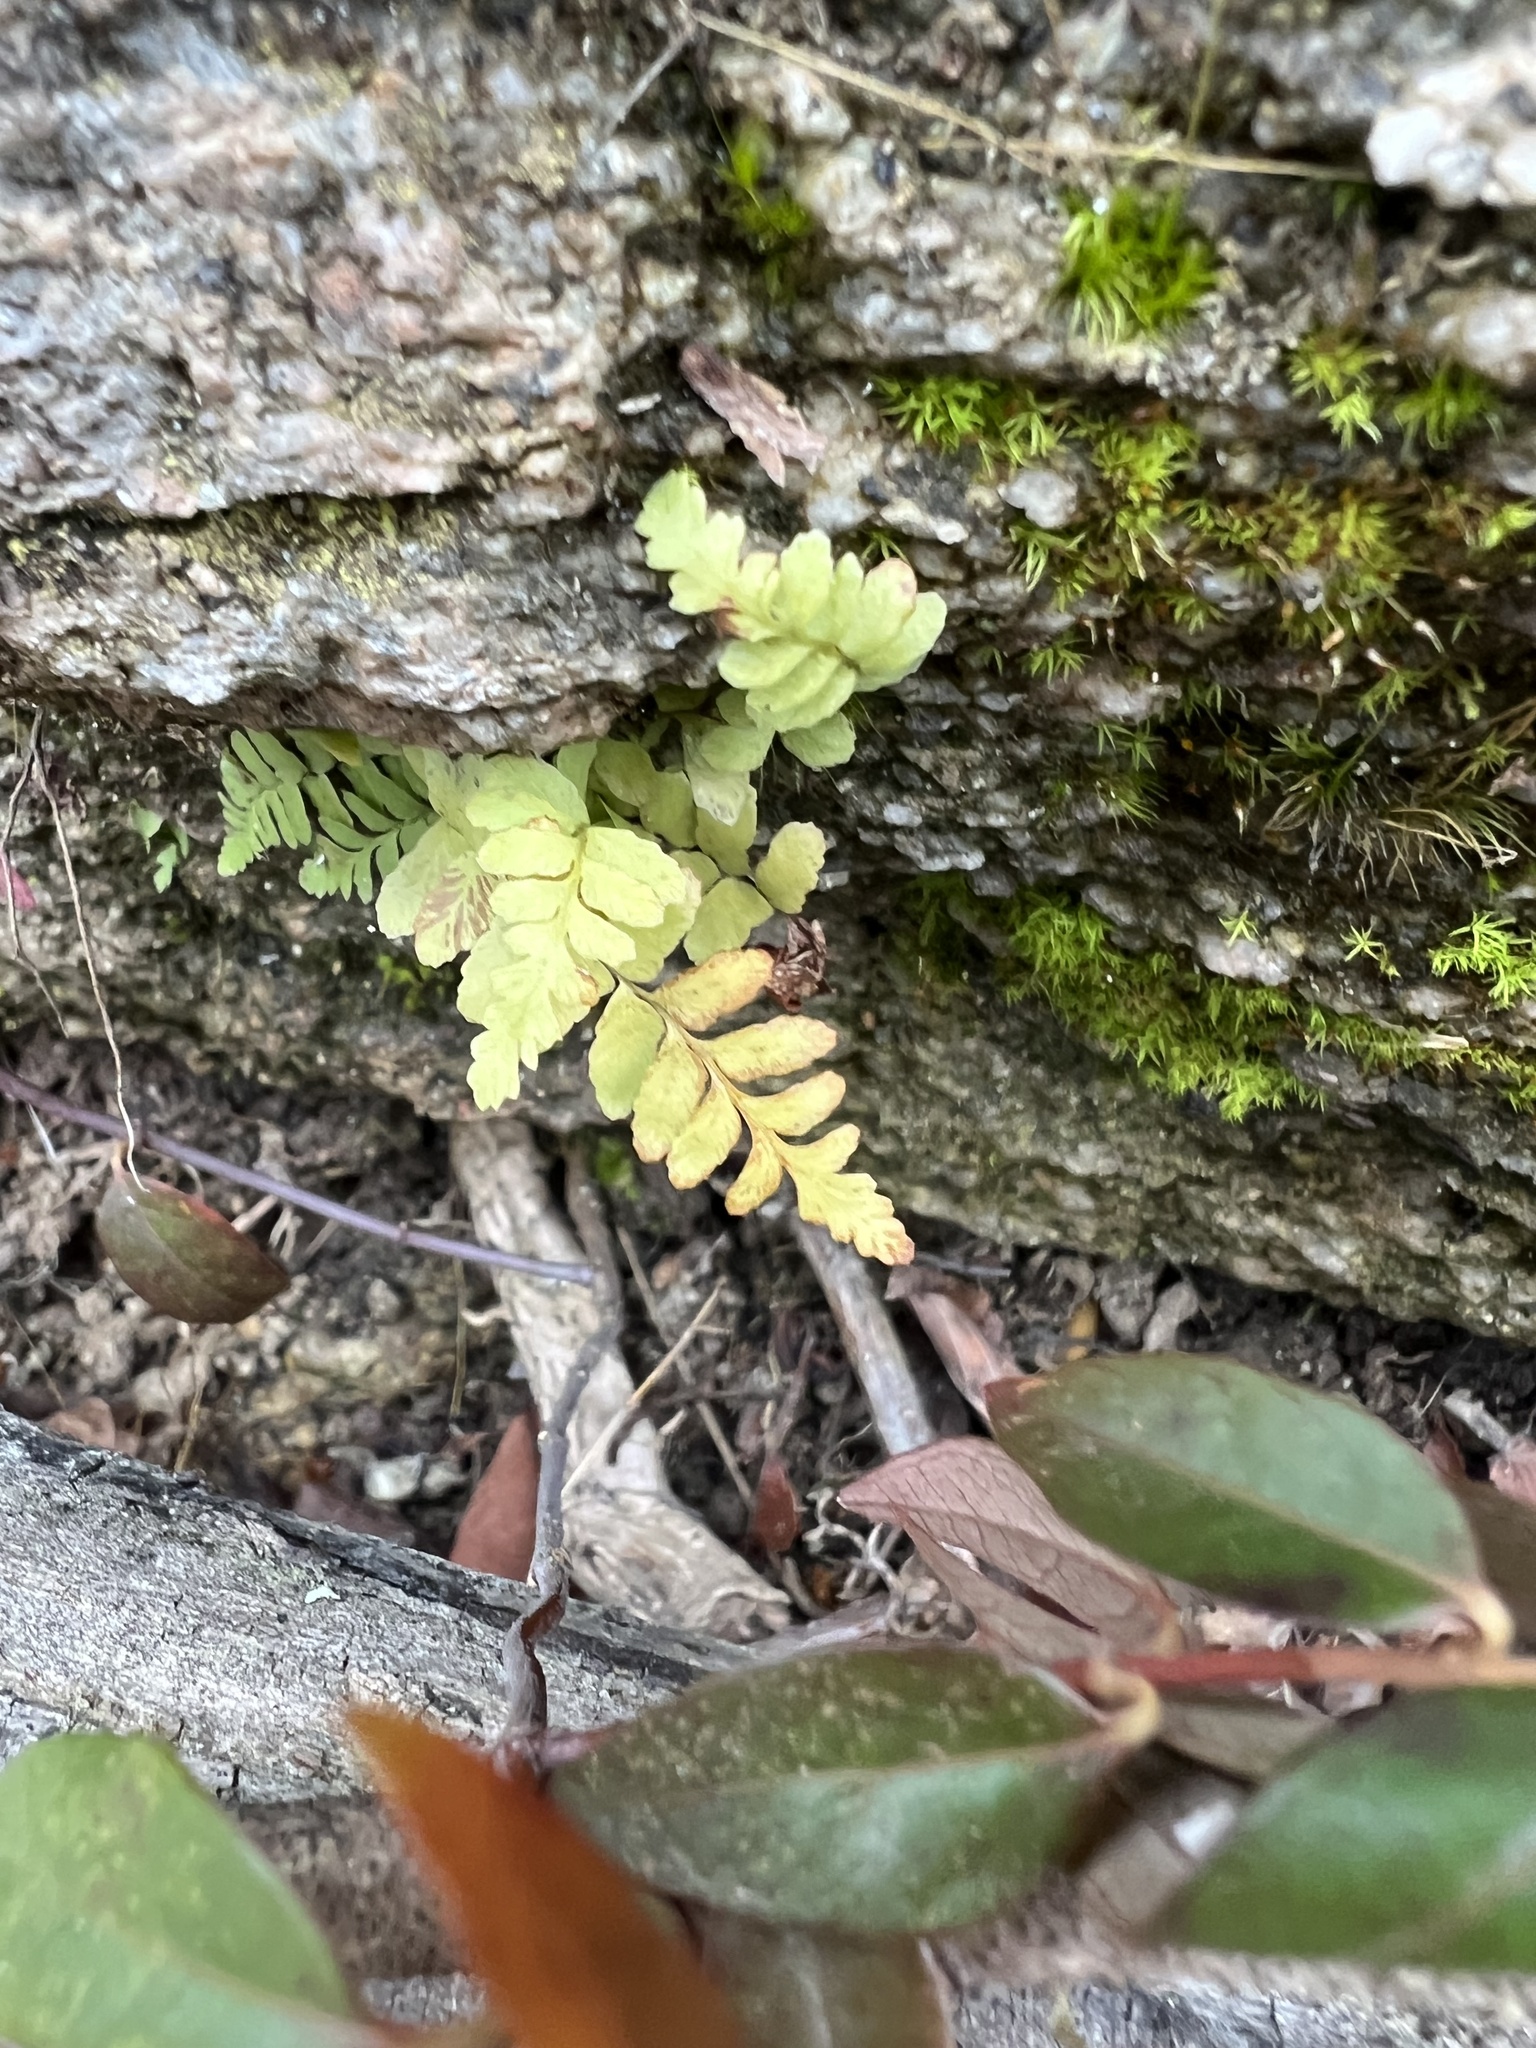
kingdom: Plantae
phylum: Tracheophyta
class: Polypodiopsida
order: Polypodiales
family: Aspleniaceae
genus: Asplenium
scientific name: Asplenium platyneuron
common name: Ebony spleenwort
